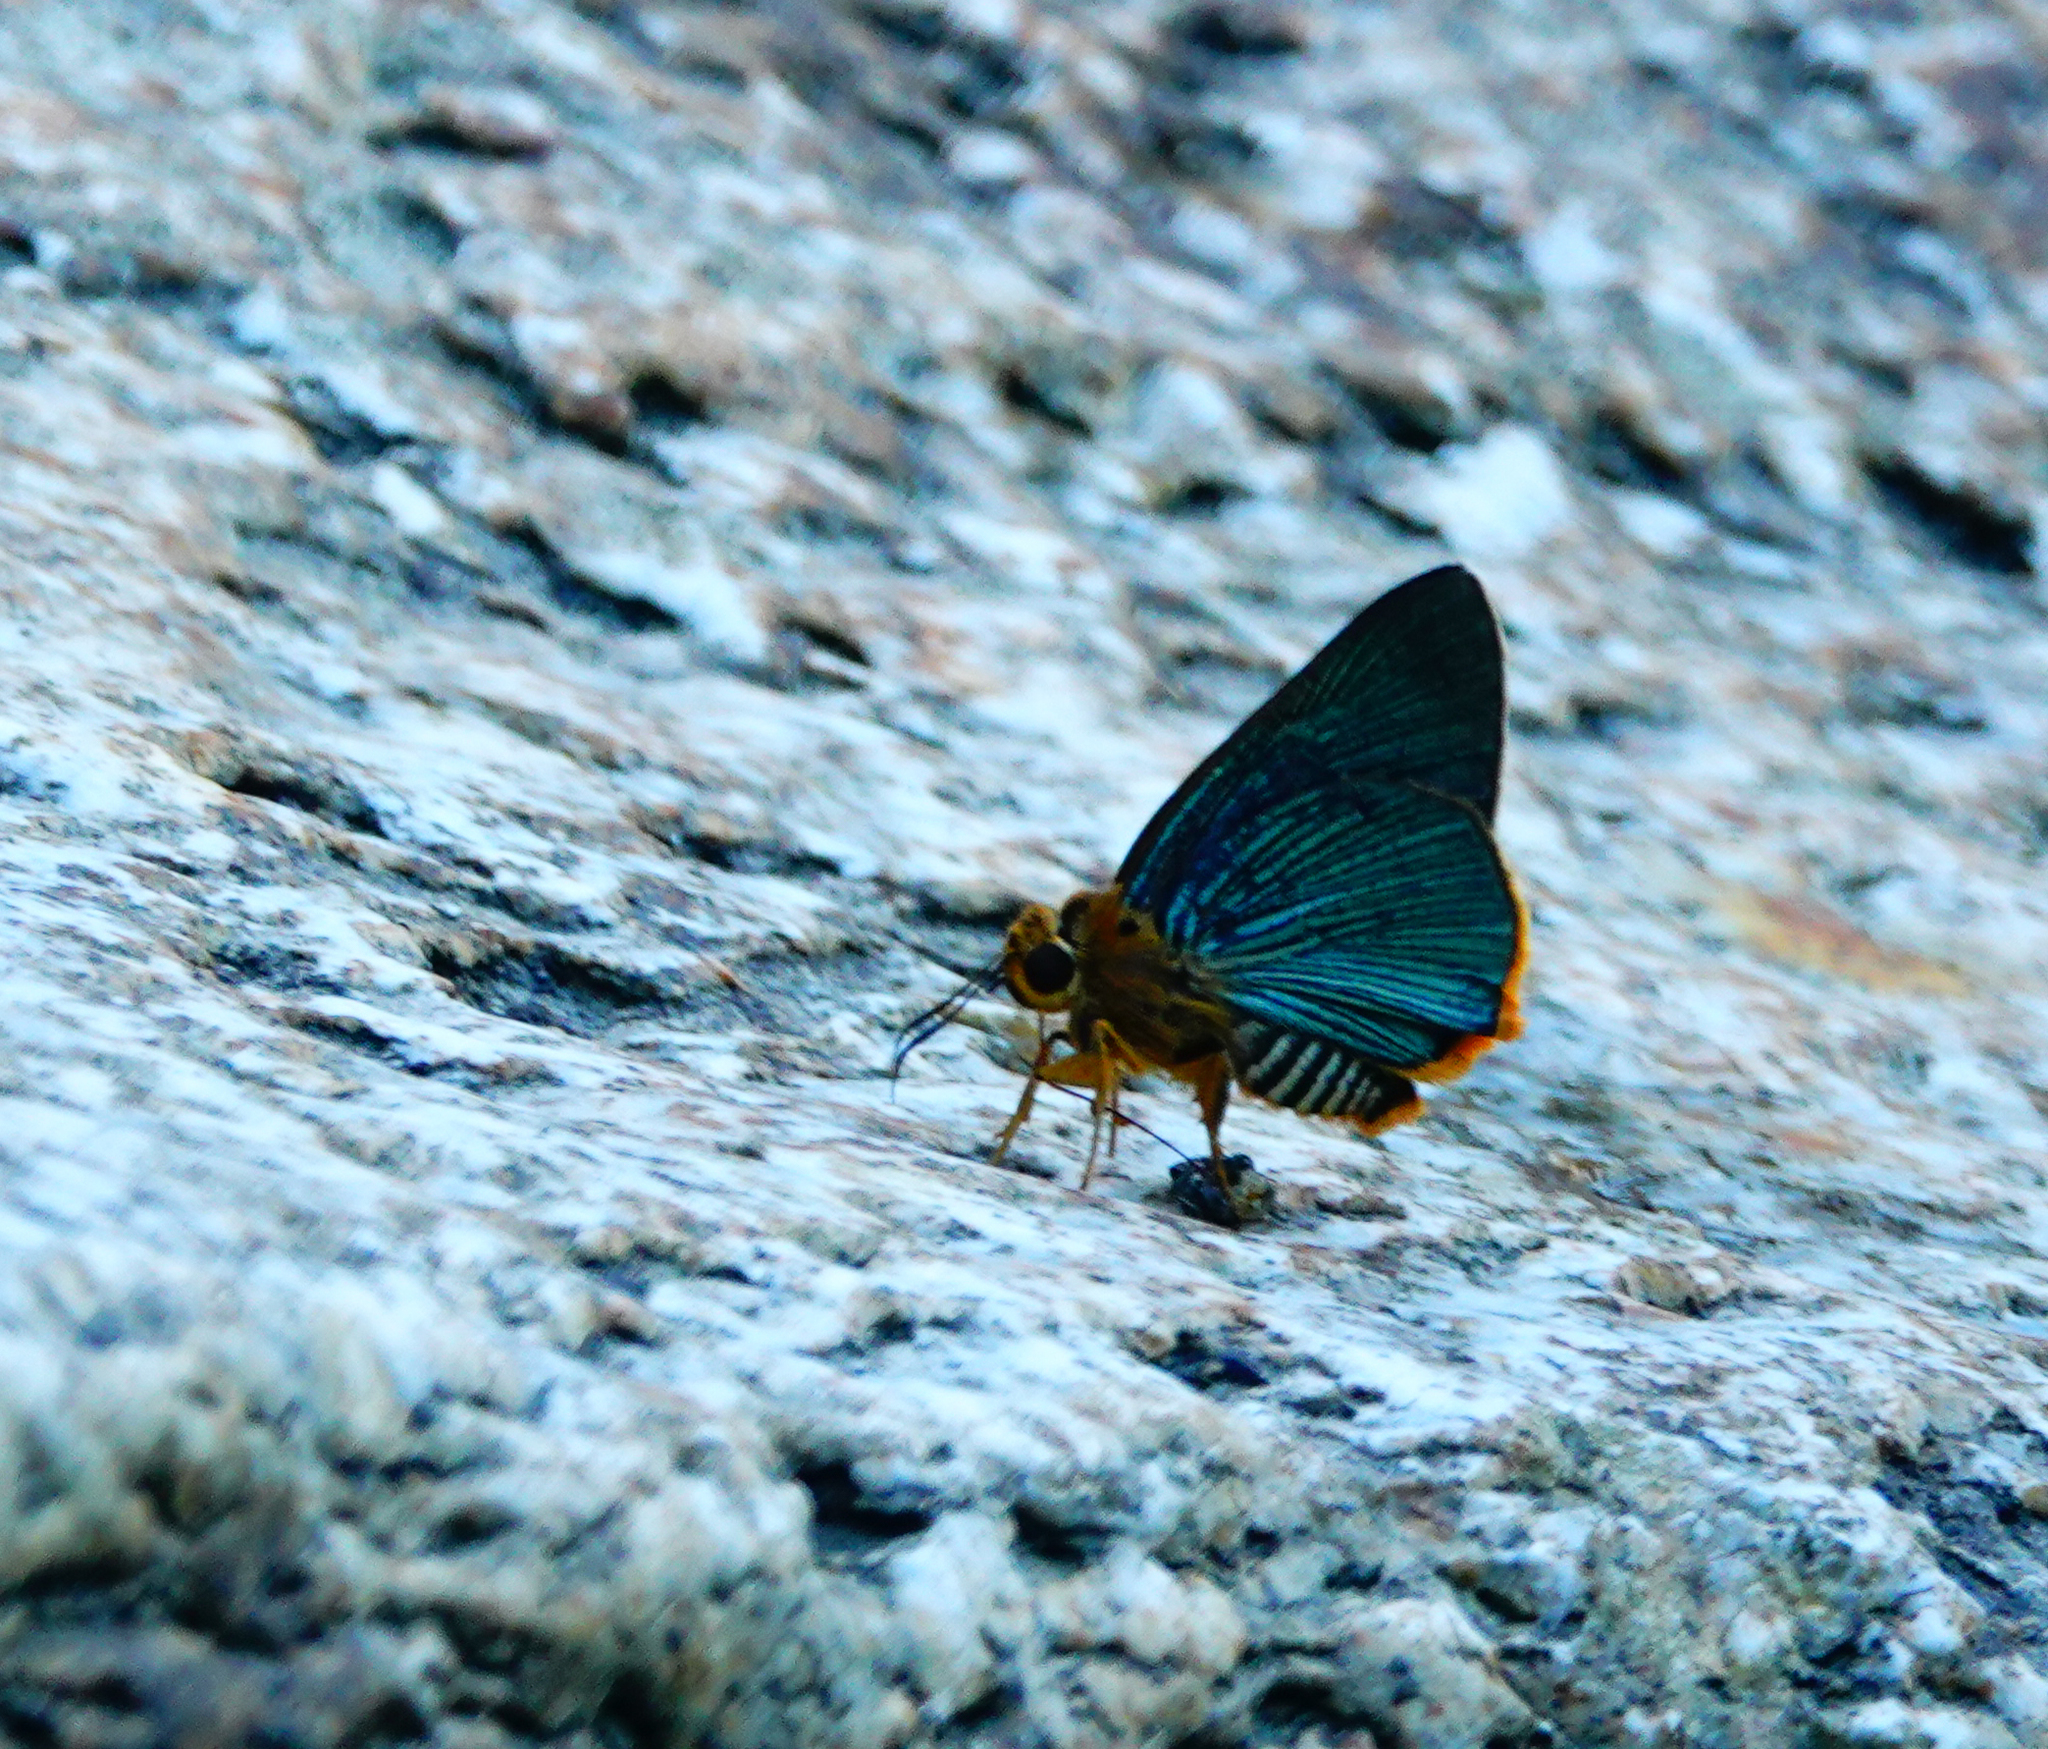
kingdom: Animalia
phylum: Arthropoda
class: Insecta
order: Lepidoptera
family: Hesperiidae
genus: Bibasis
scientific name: Bibasis vasutana
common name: Green awlet
